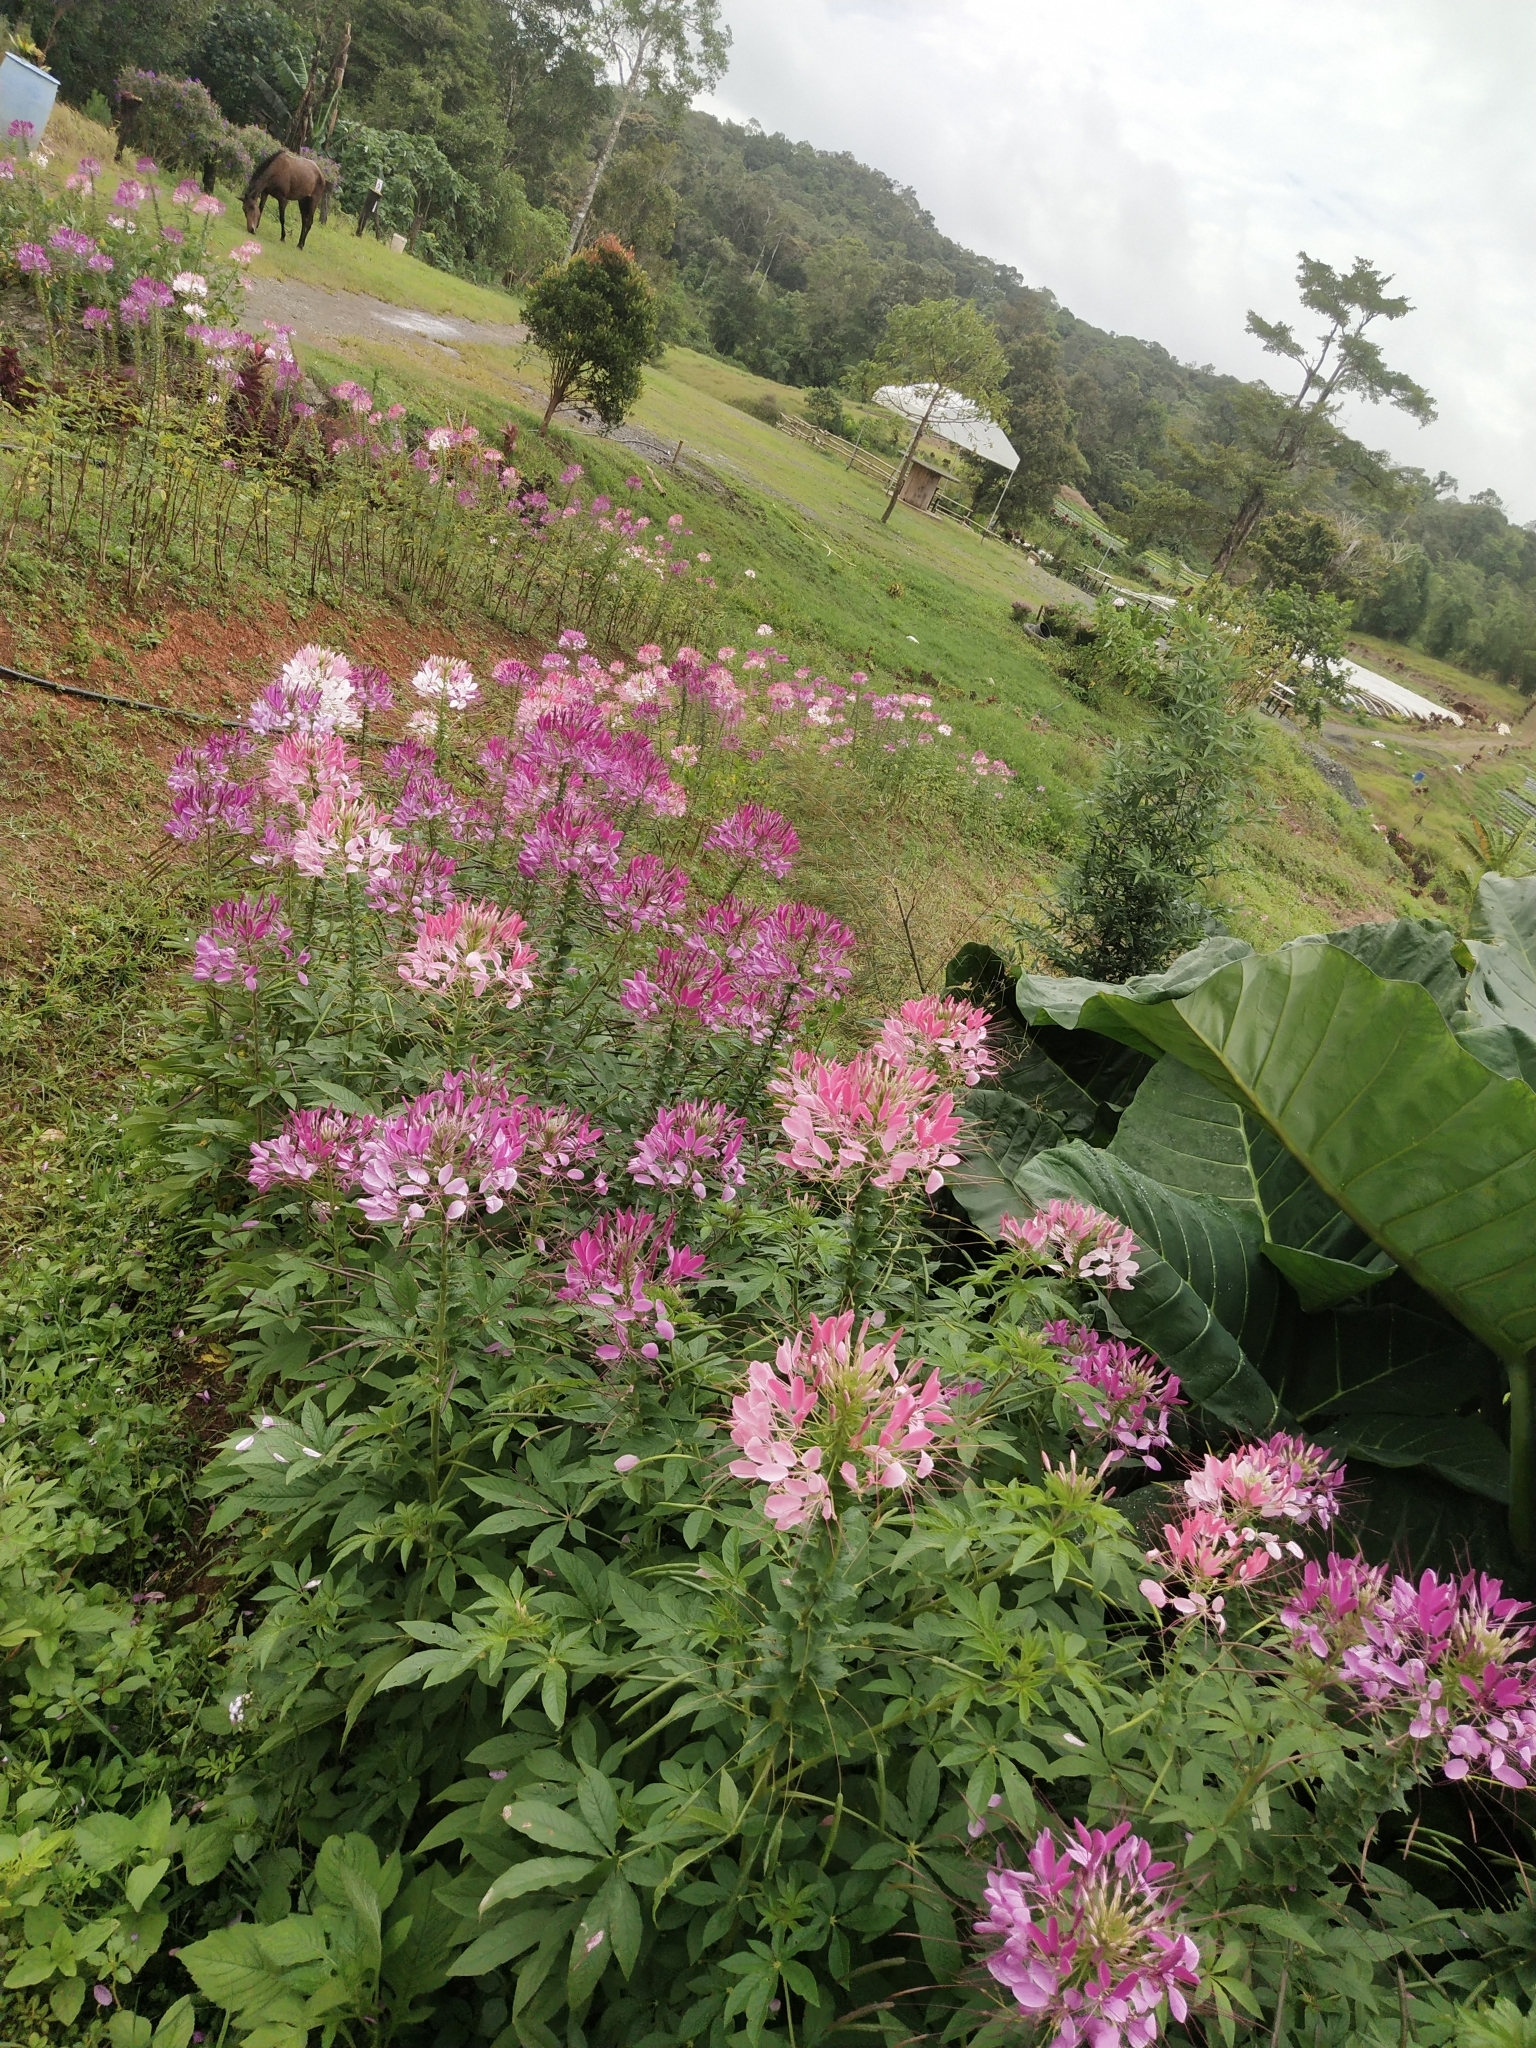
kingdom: Plantae
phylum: Tracheophyta
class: Magnoliopsida
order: Brassicales
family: Cleomaceae
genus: Tarenaya
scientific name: Tarenaya houtteana
